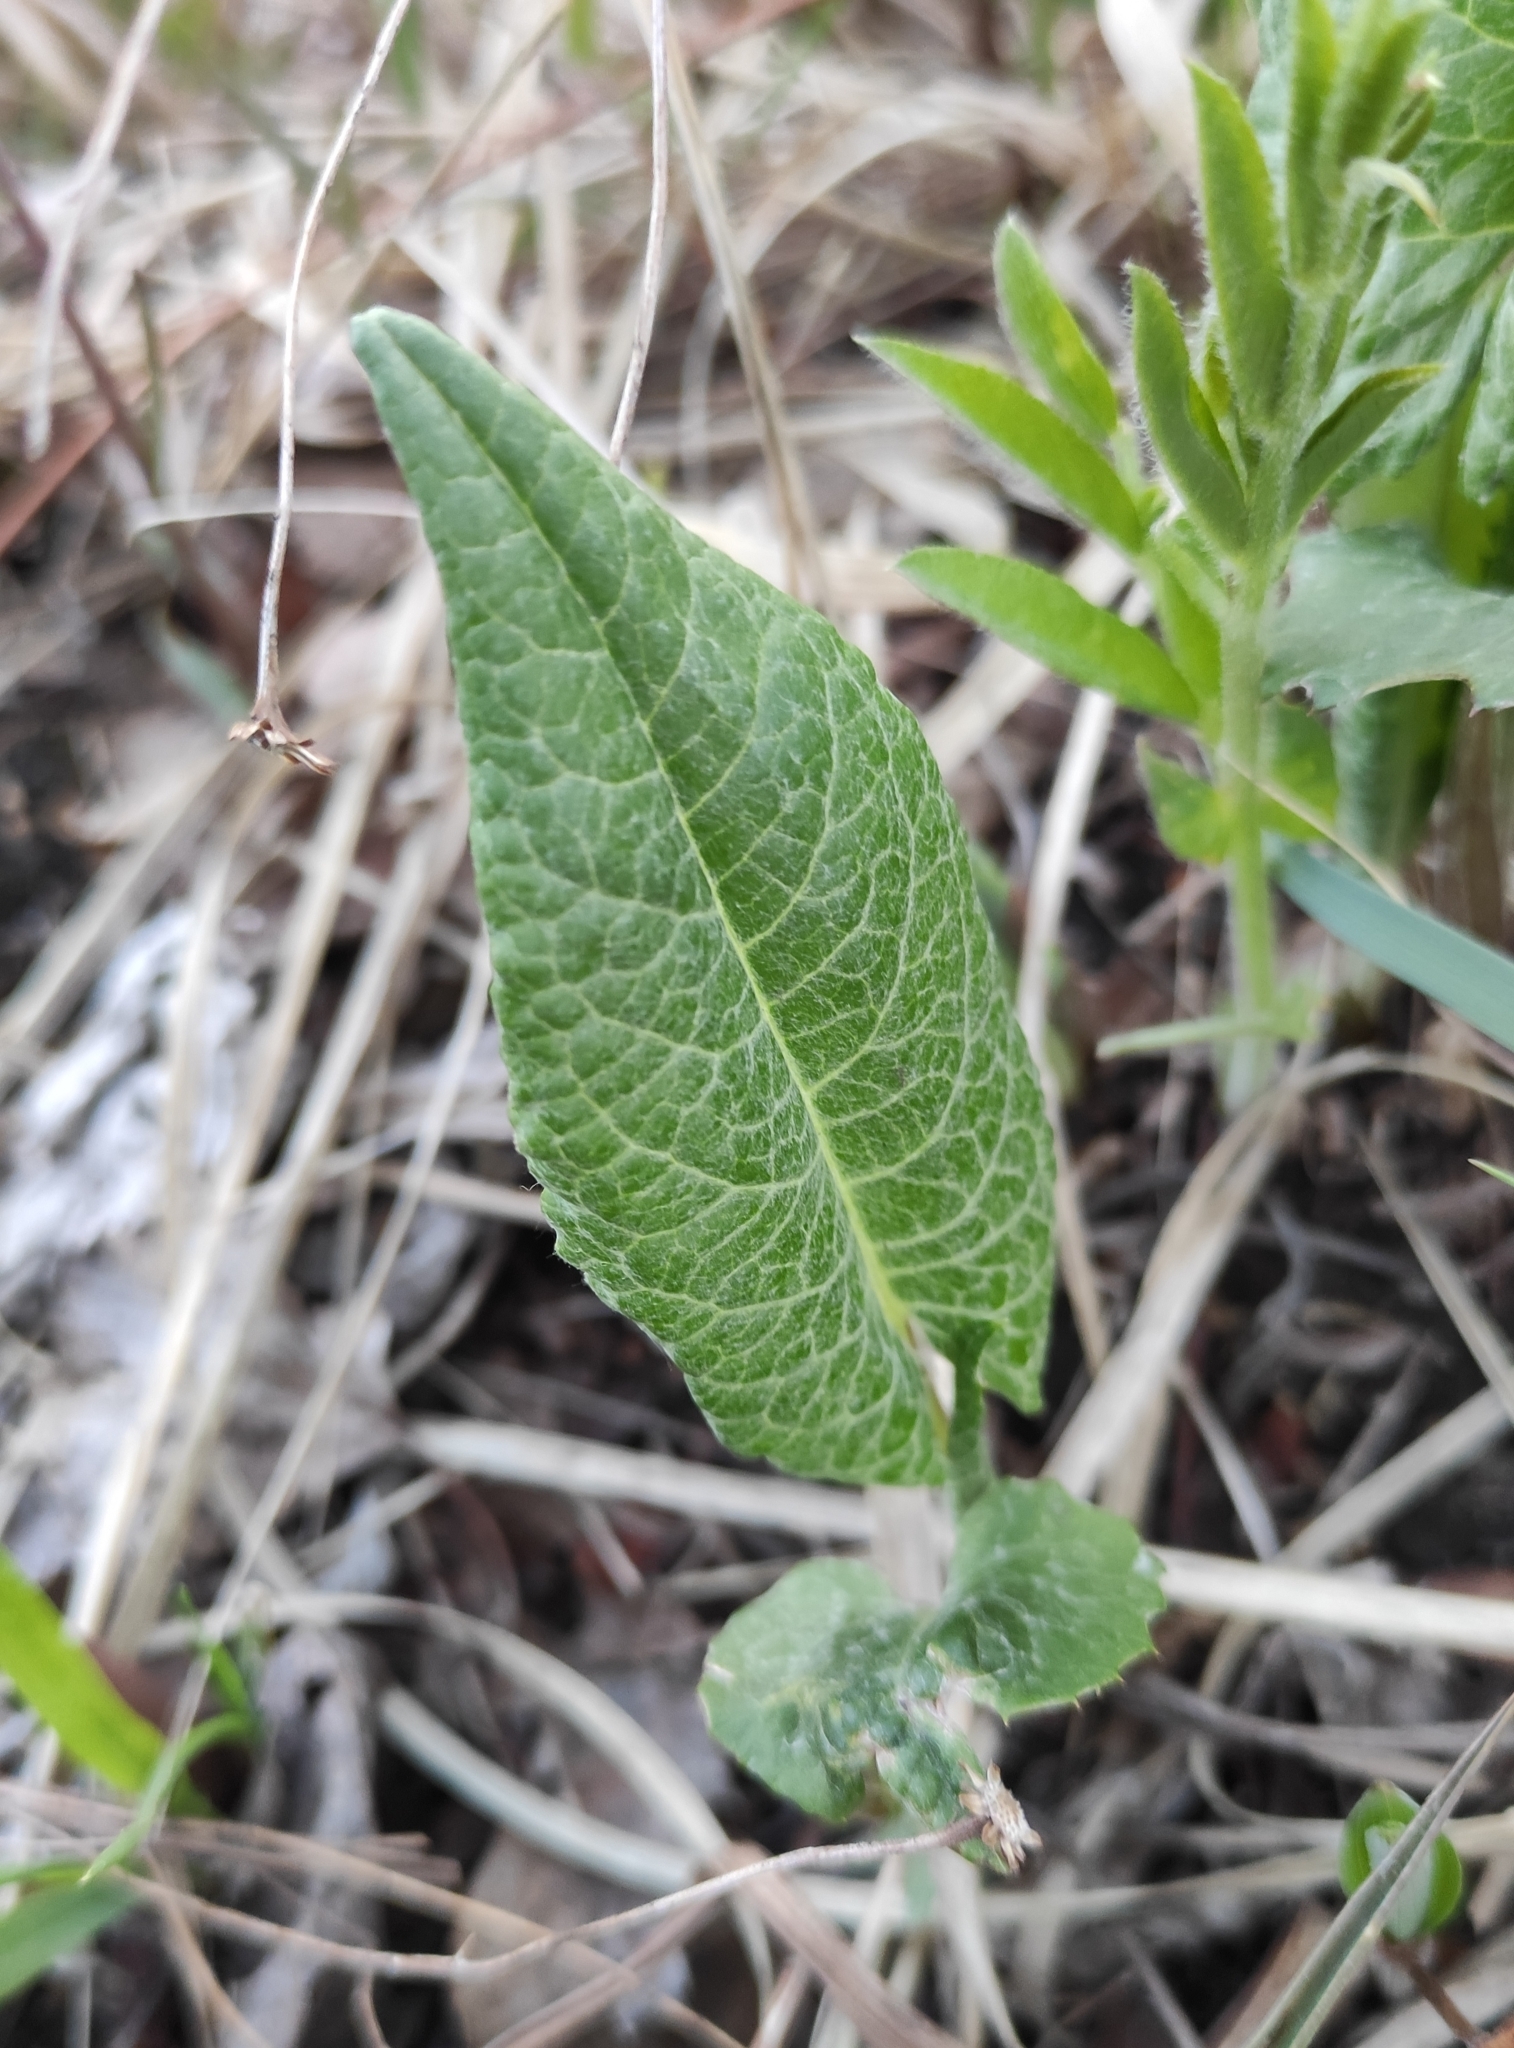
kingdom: Plantae
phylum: Tracheophyta
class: Magnoliopsida
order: Asterales
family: Asteraceae
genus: Saussurea
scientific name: Saussurea controversa
